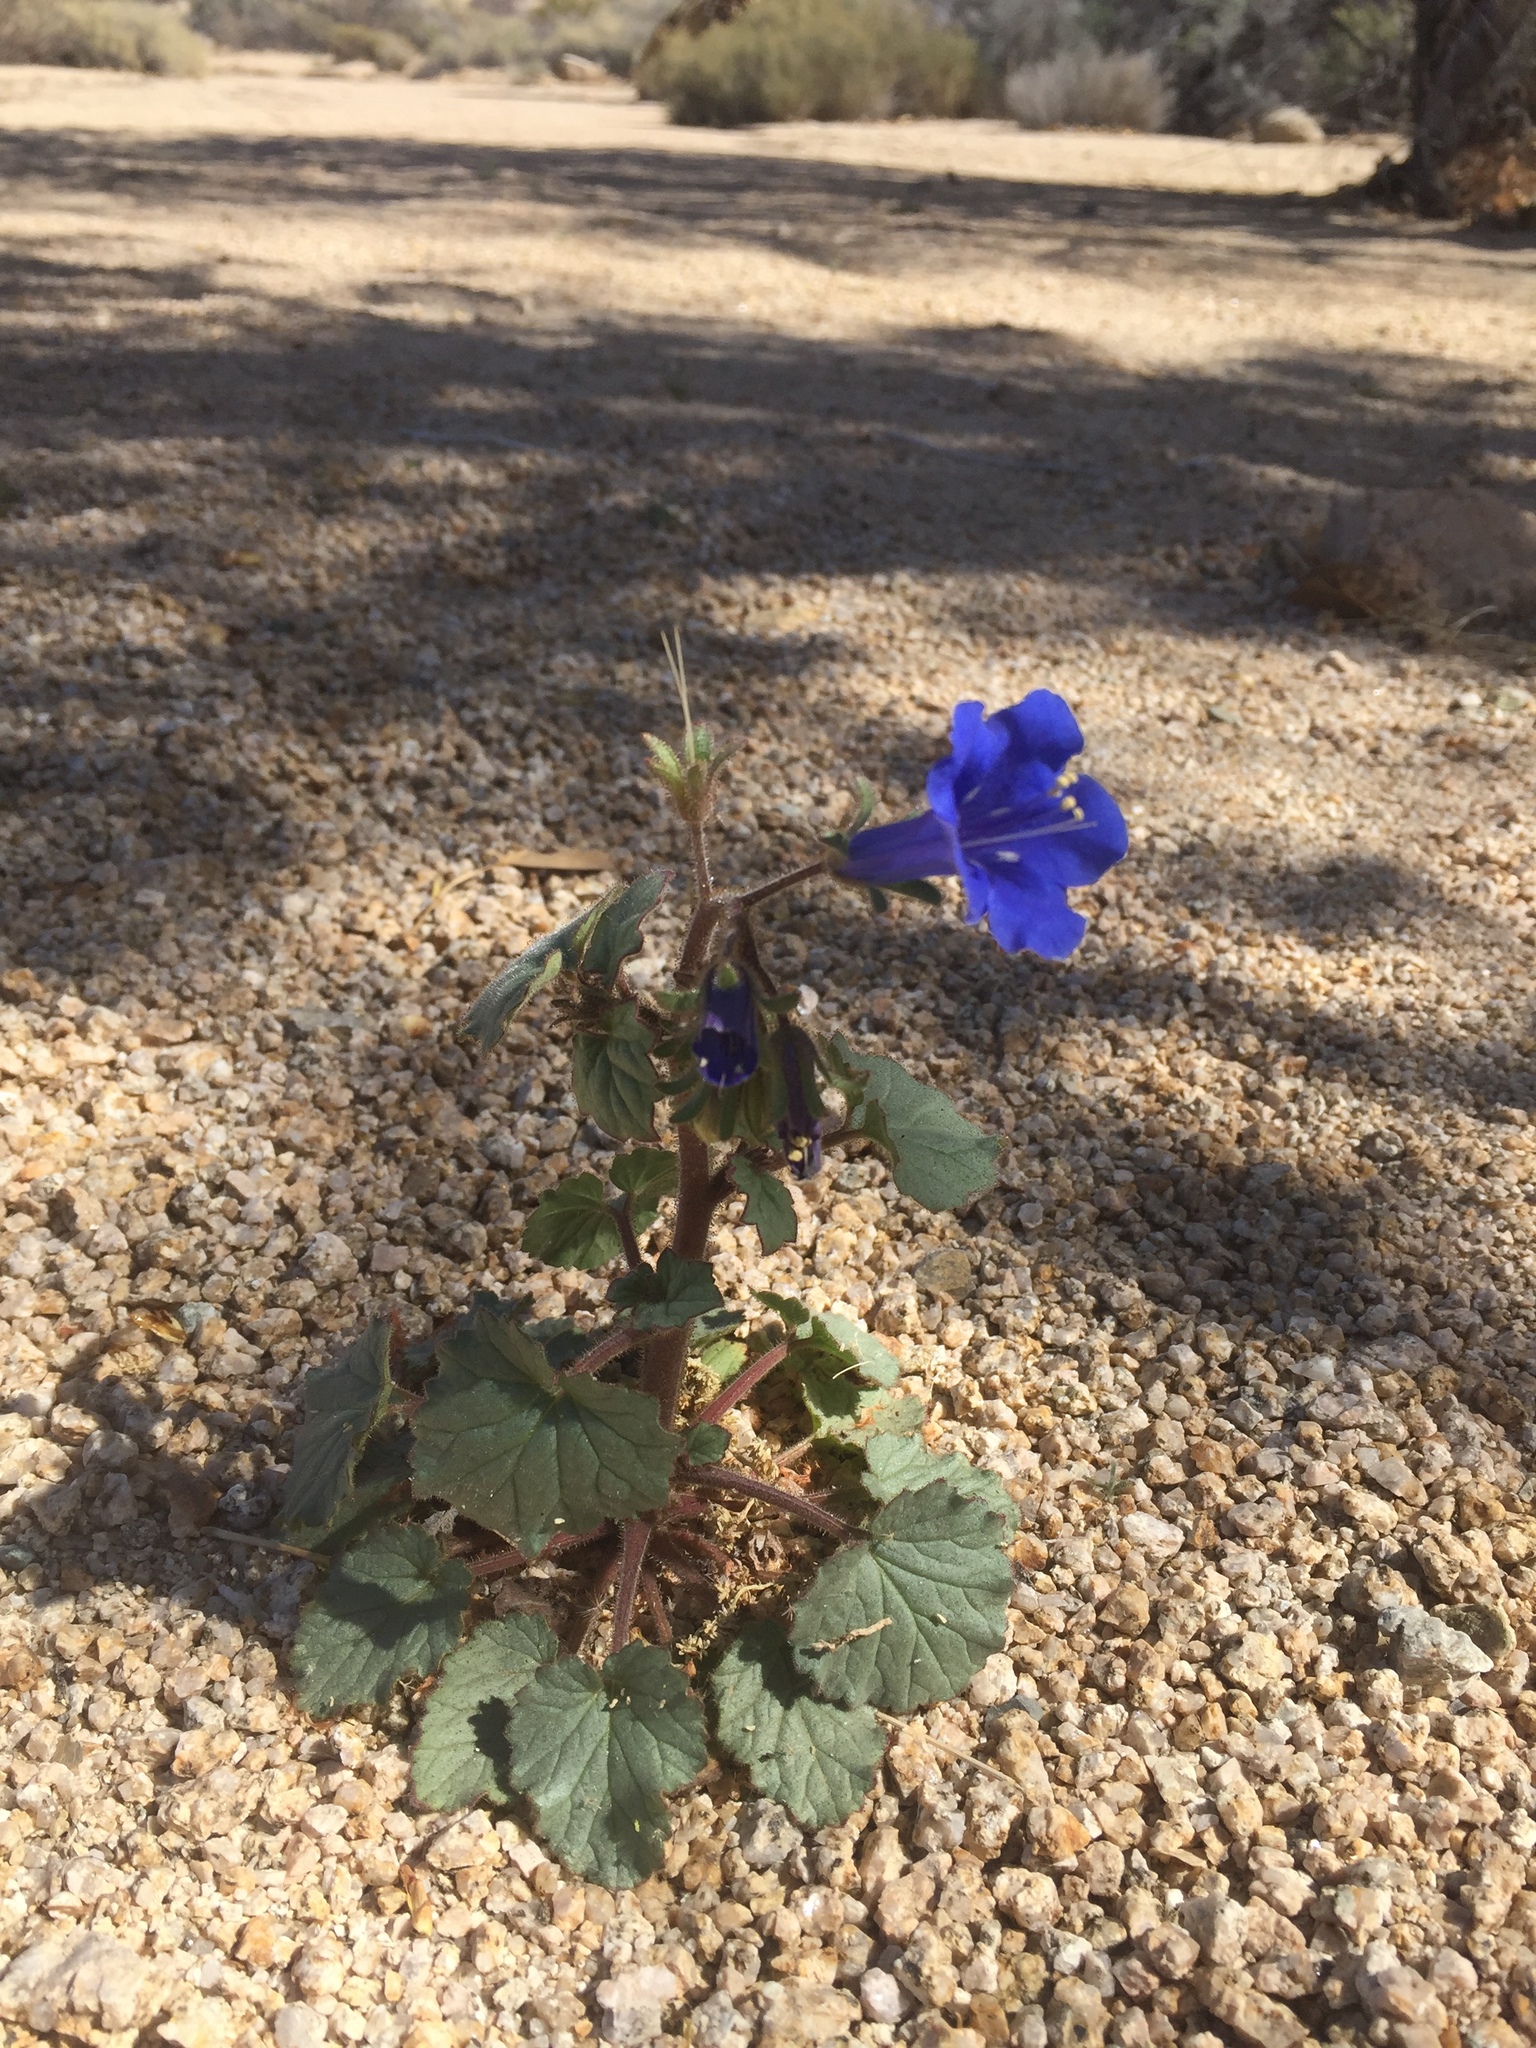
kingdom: Plantae
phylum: Tracheophyta
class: Magnoliopsida
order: Boraginales
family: Hydrophyllaceae
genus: Phacelia
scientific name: Phacelia campanularia
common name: California bluebell
